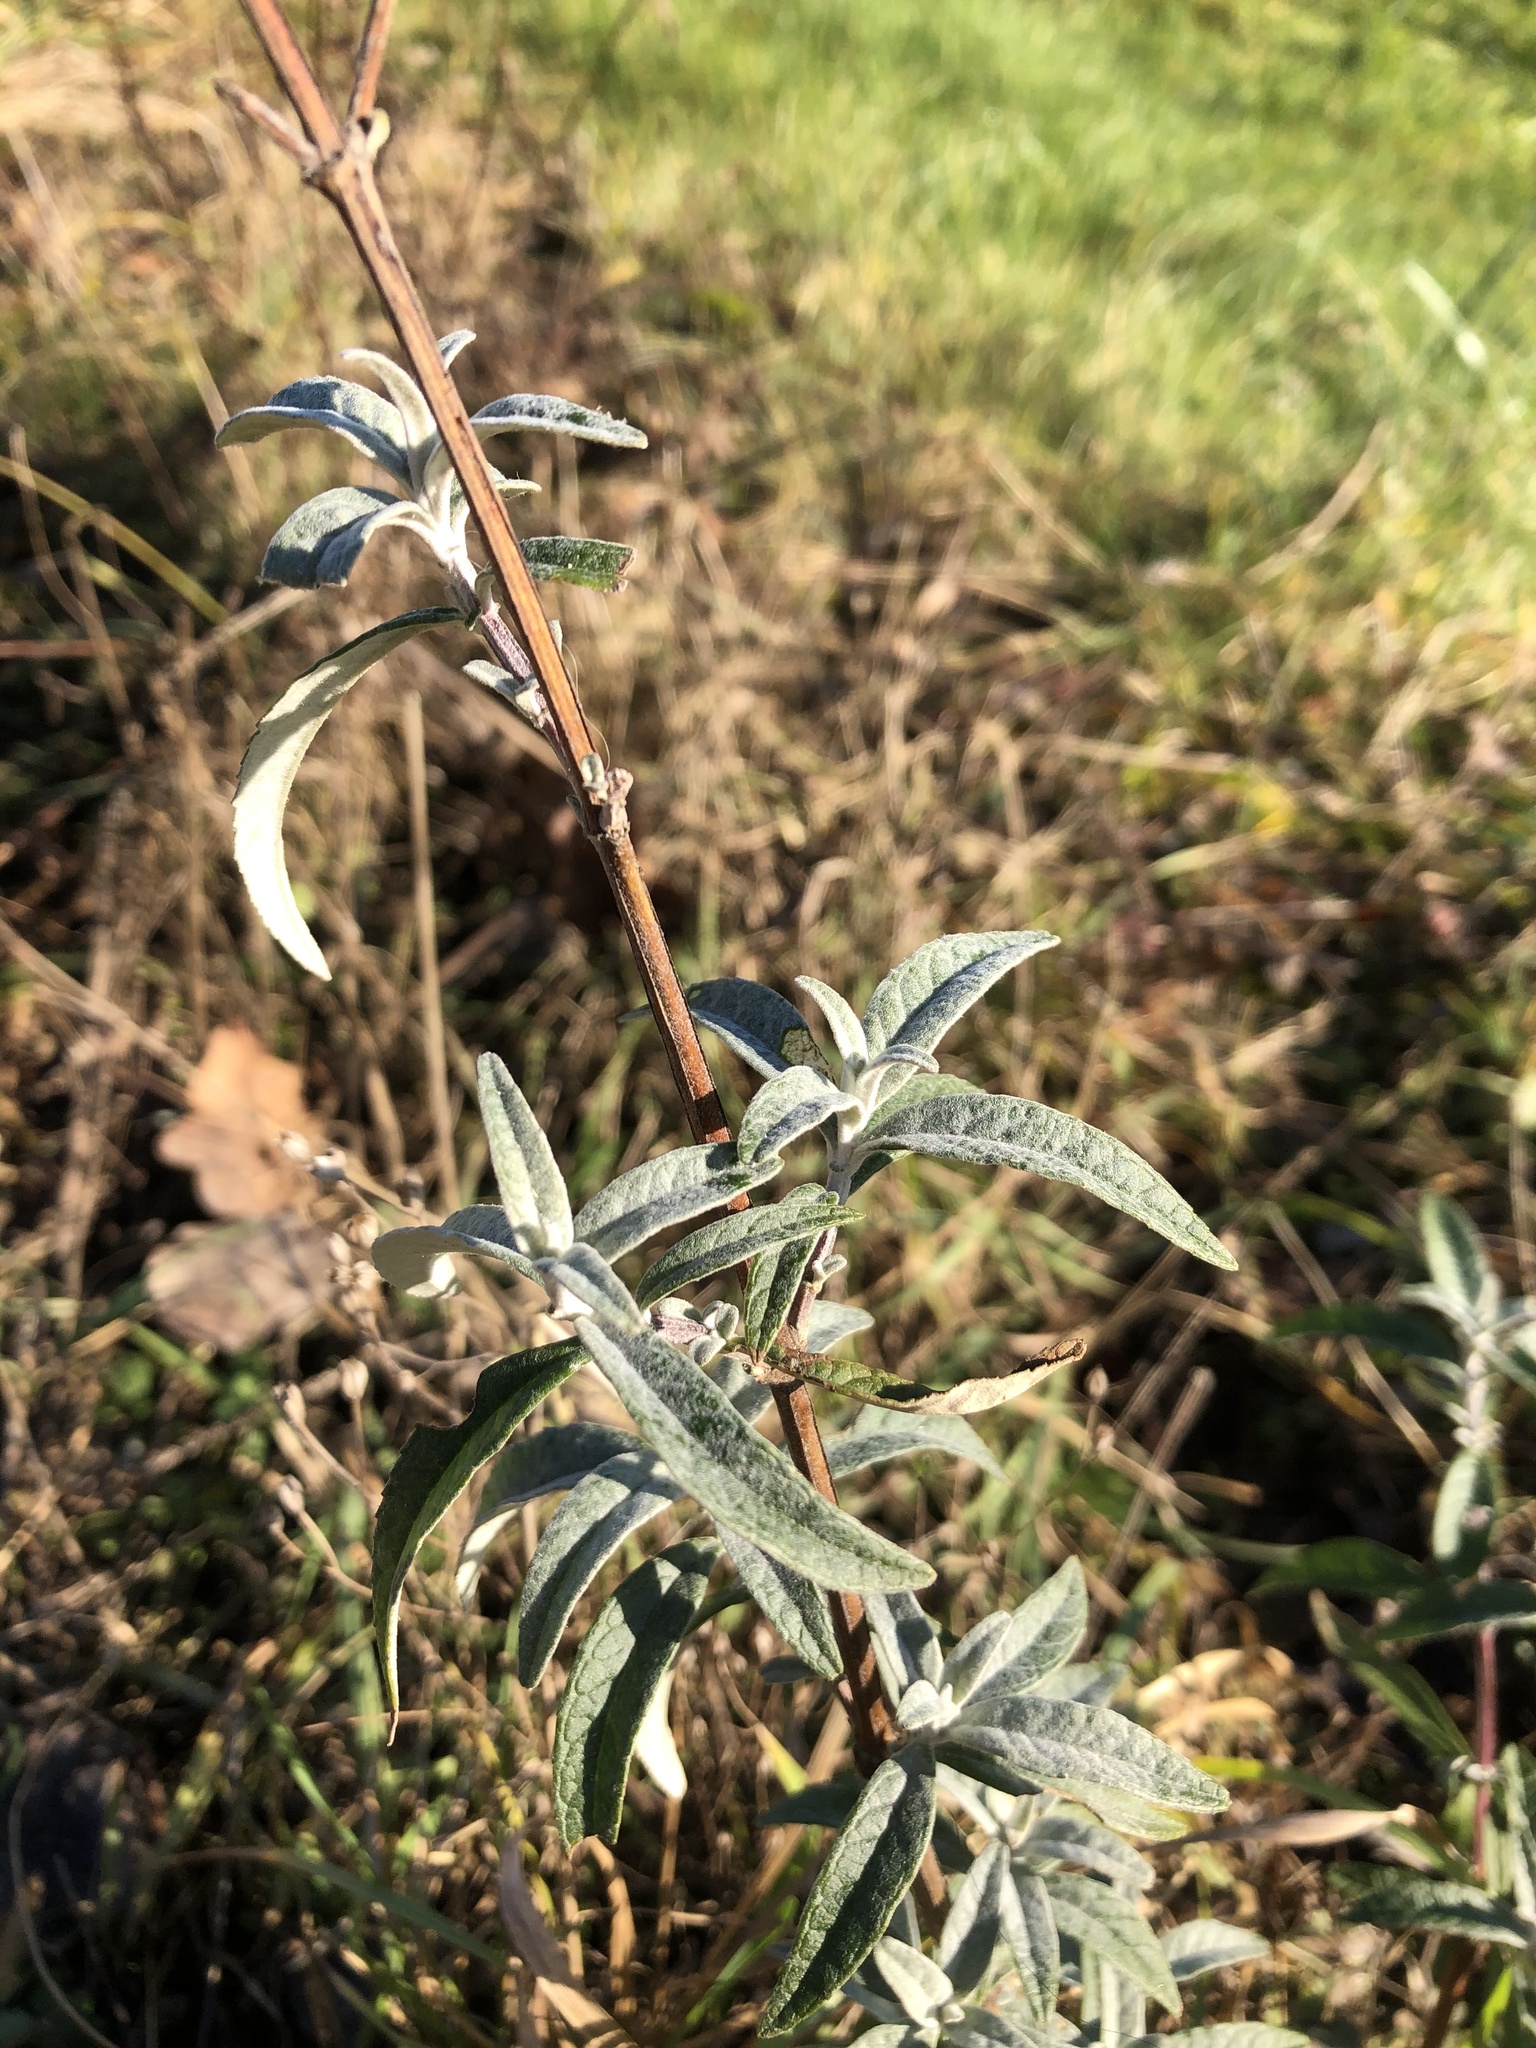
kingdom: Plantae
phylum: Tracheophyta
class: Magnoliopsida
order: Lamiales
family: Scrophulariaceae
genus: Buddleja
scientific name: Buddleja davidii
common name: Butterfly-bush
